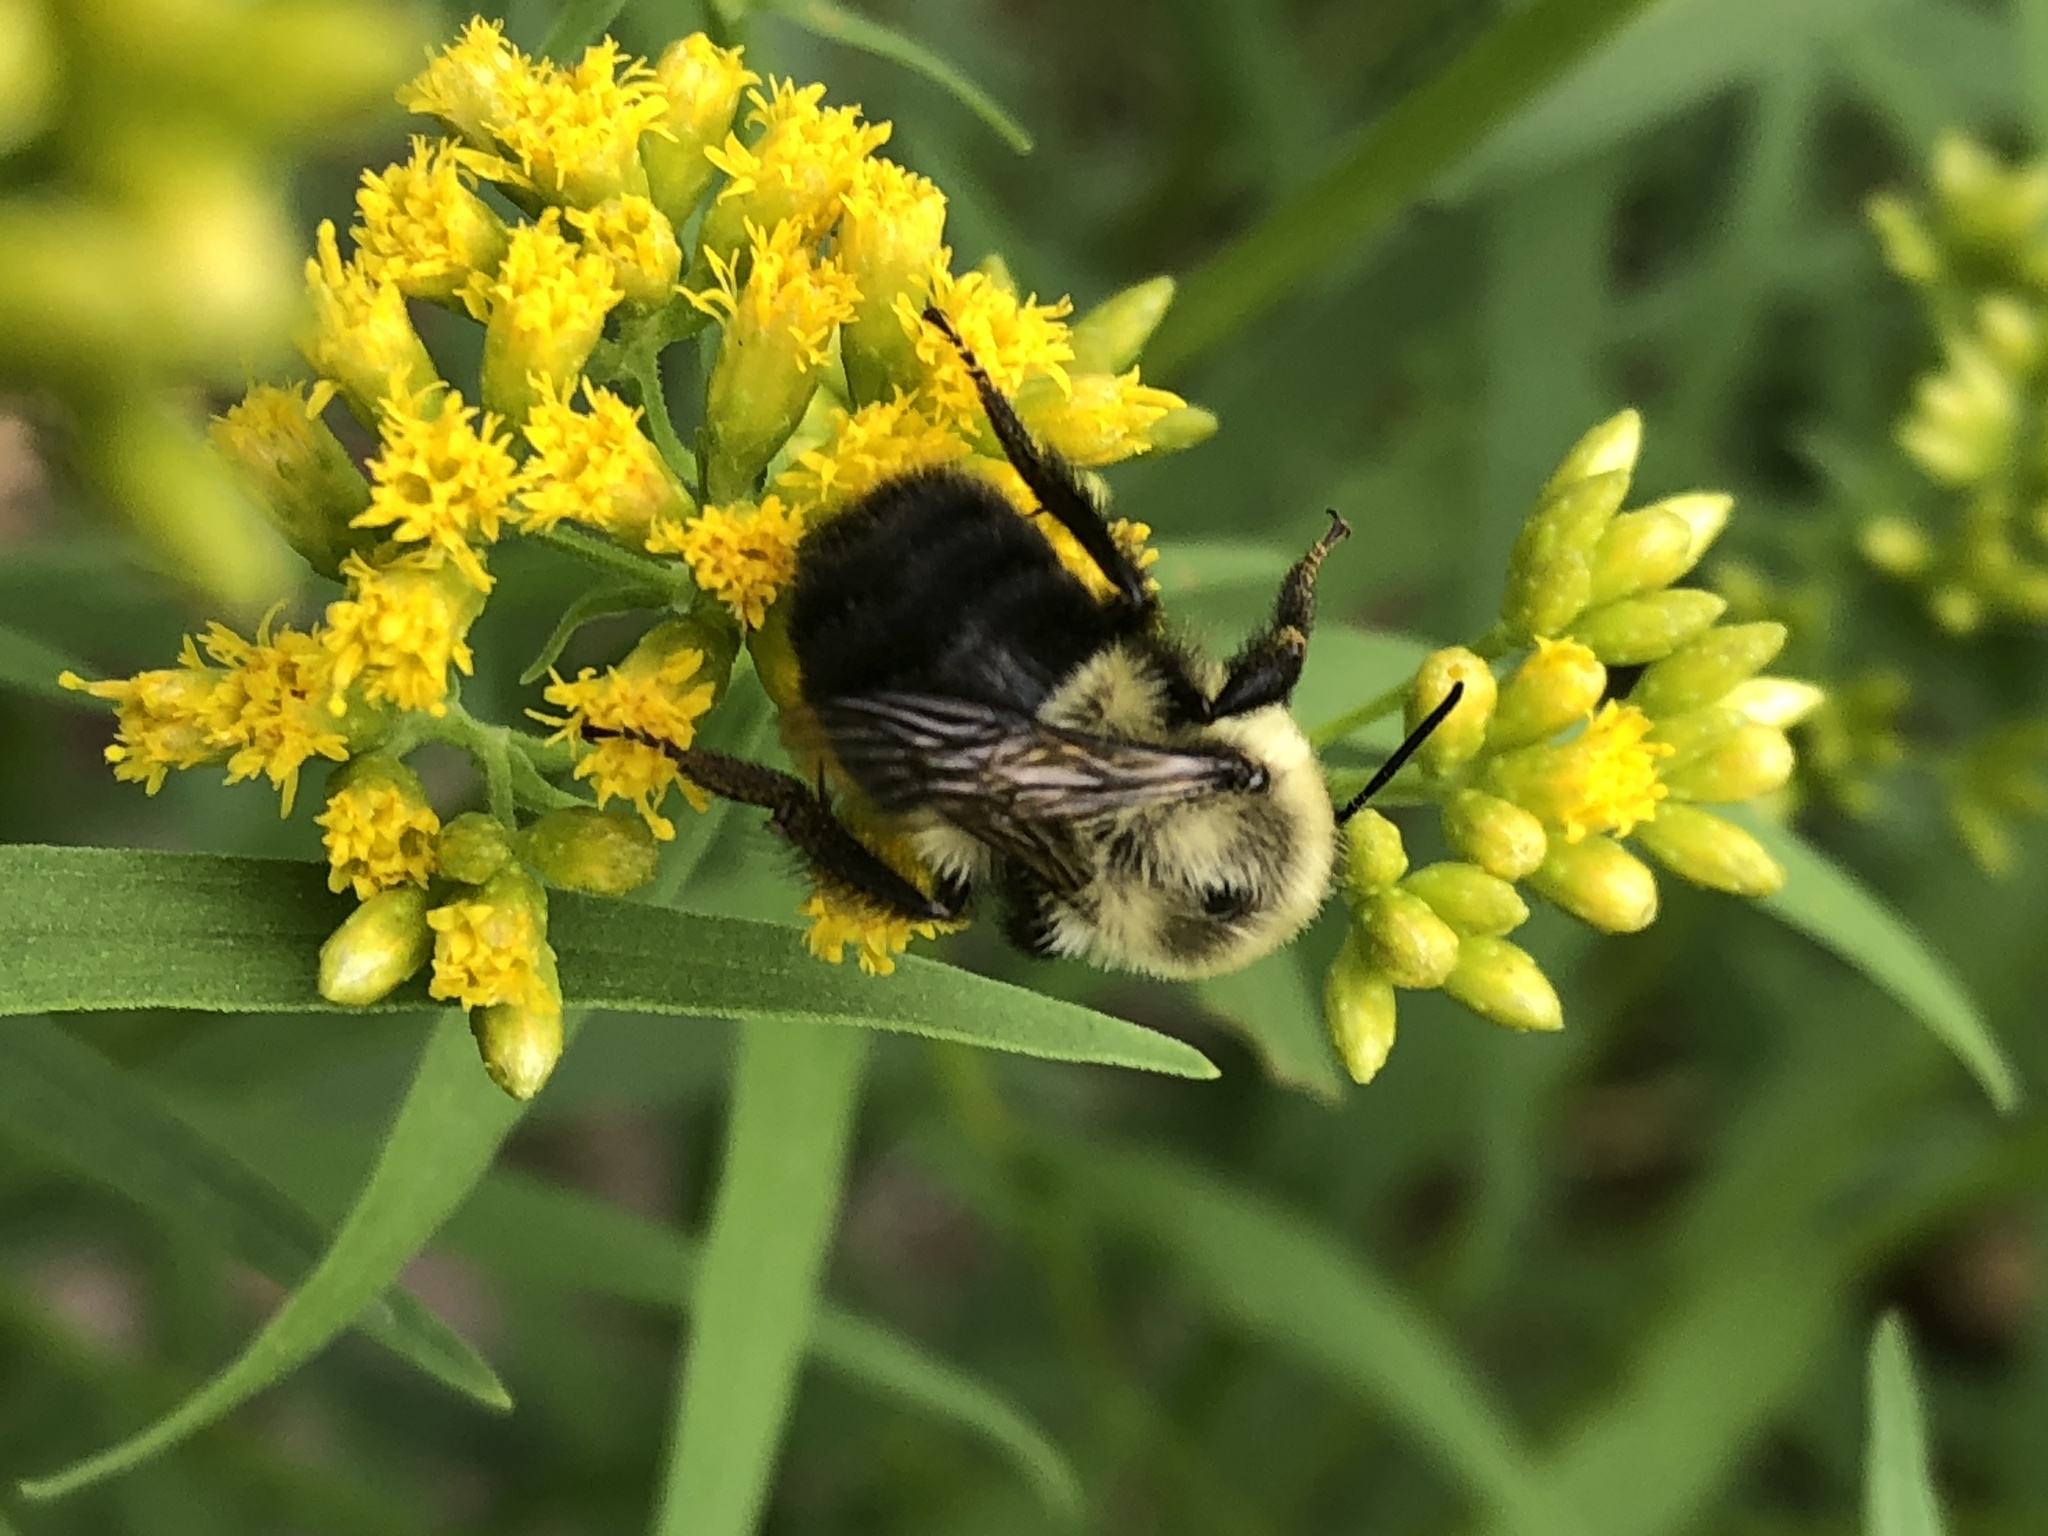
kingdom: Animalia
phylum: Arthropoda
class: Insecta
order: Hymenoptera
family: Apidae
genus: Bombus
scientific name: Bombus impatiens
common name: Common eastern bumble bee
